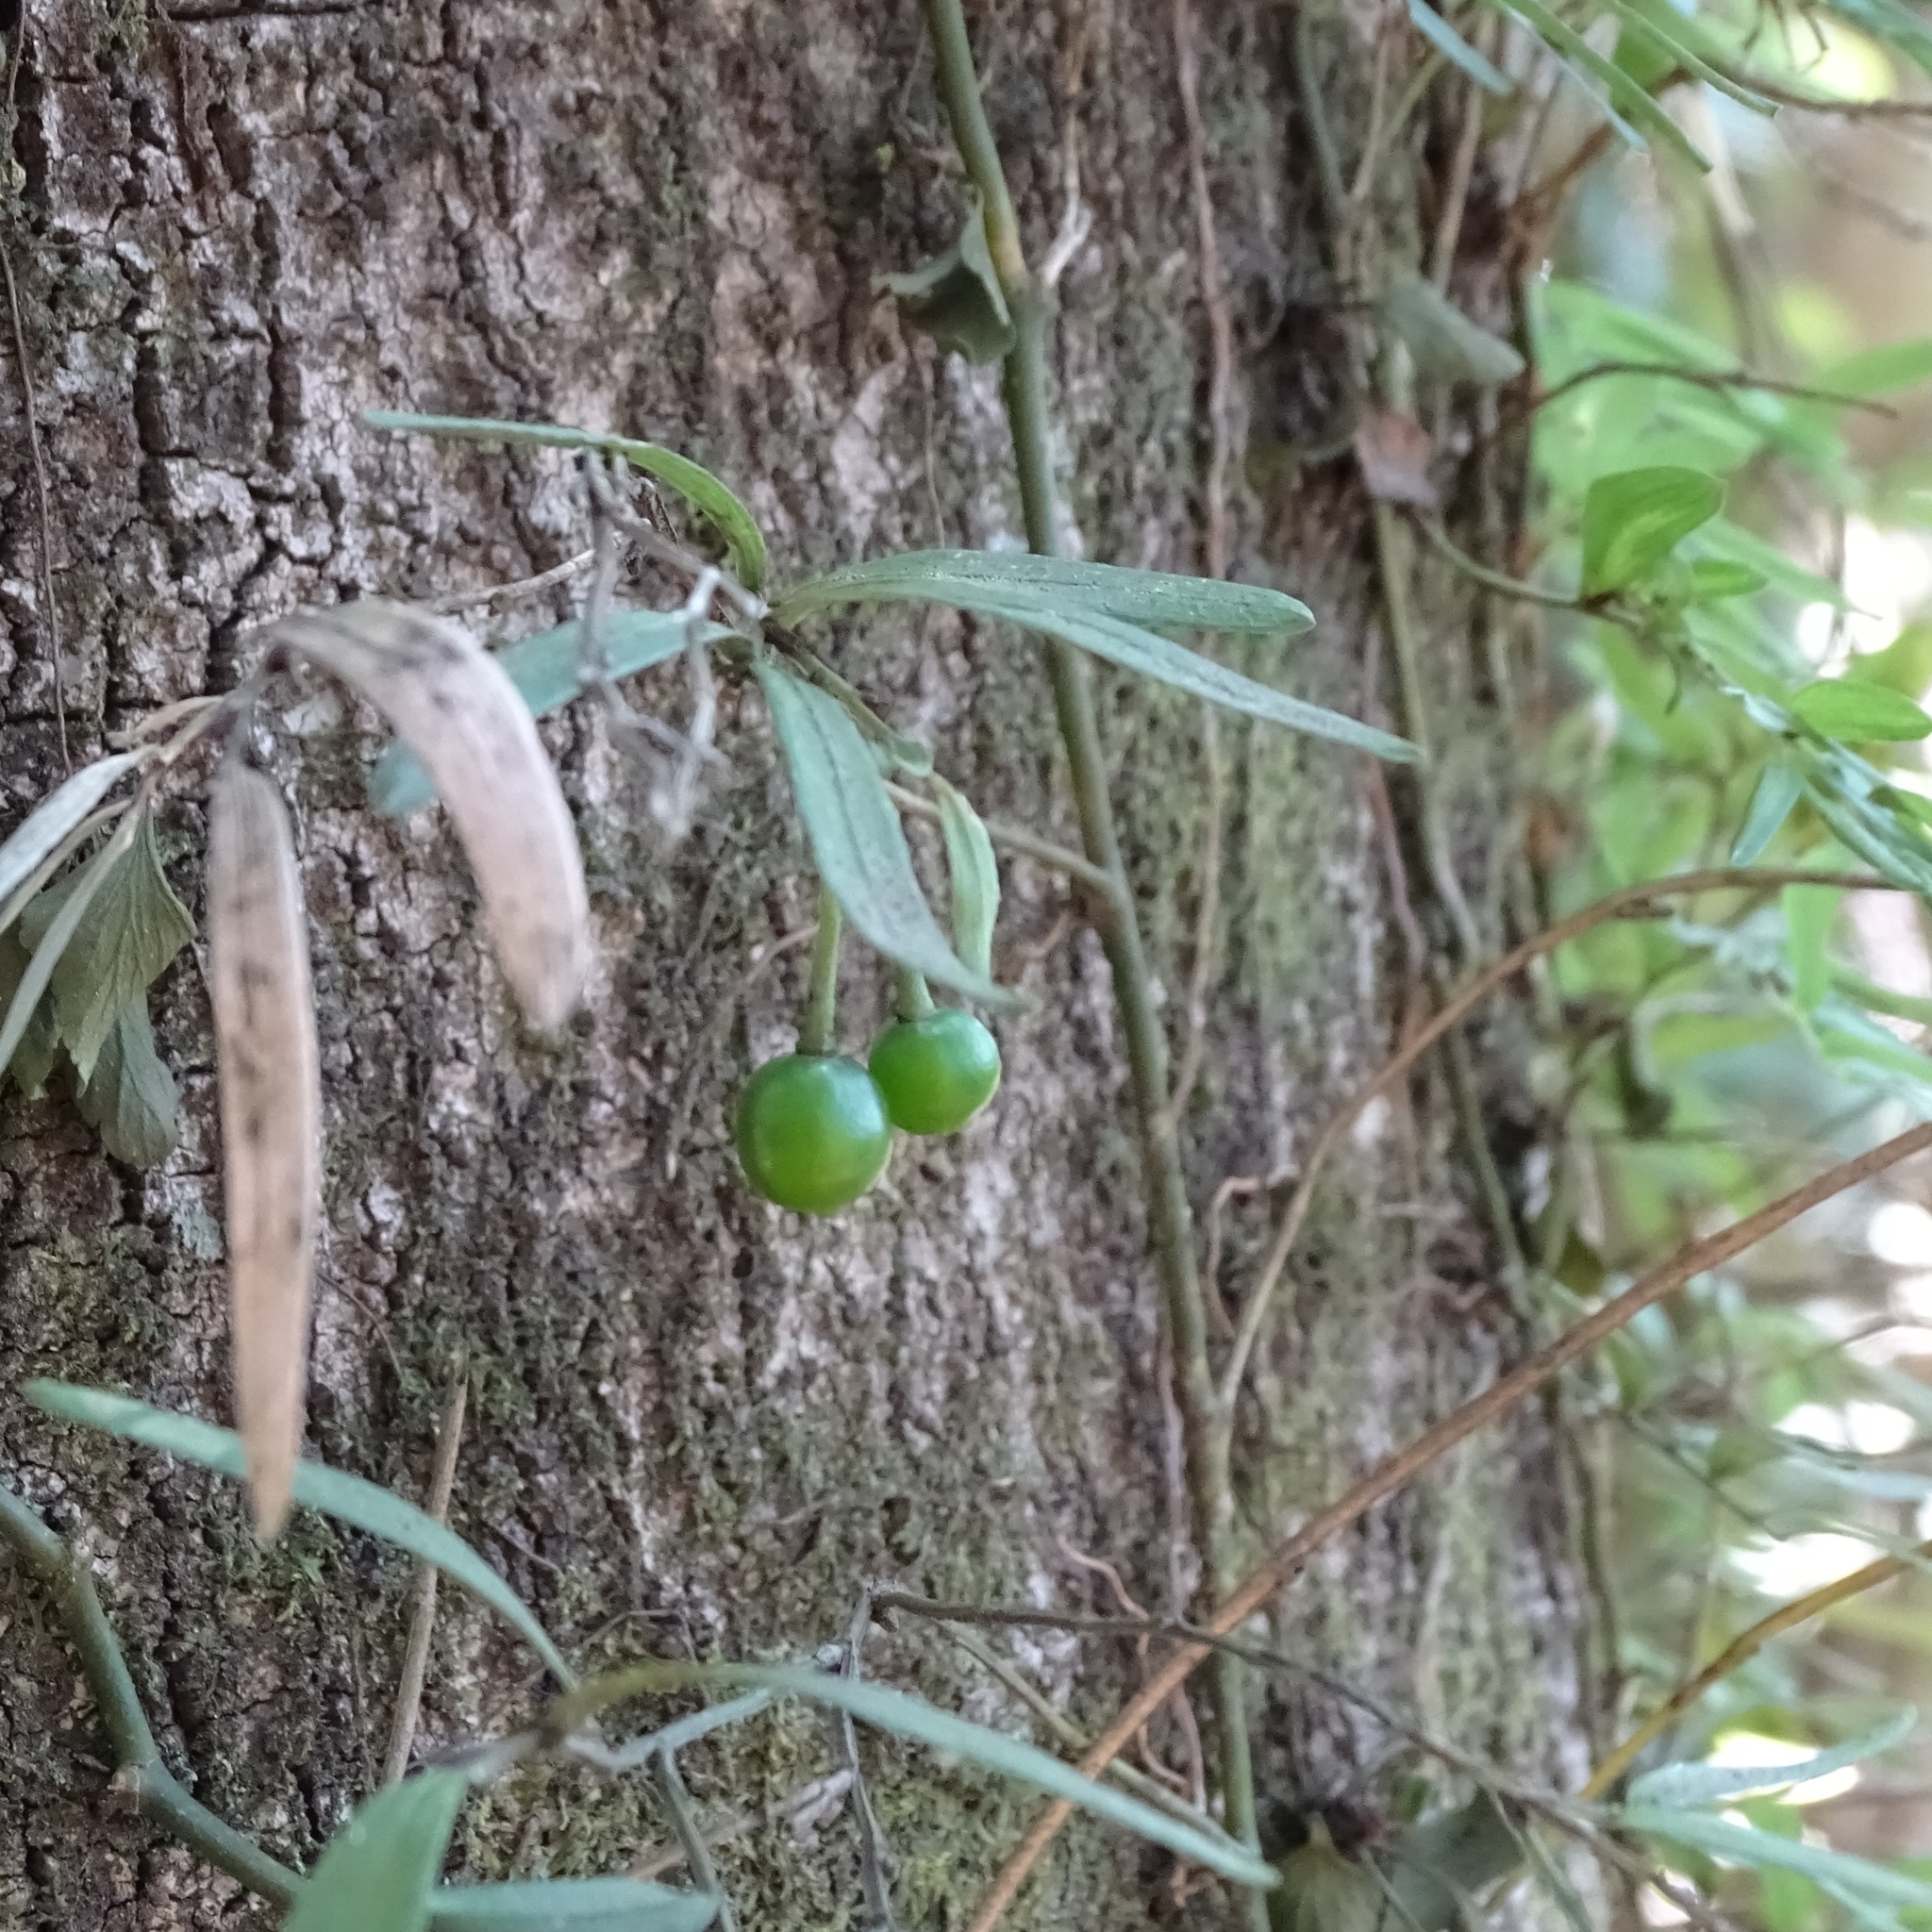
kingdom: Plantae
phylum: Tracheophyta
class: Liliopsida
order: Liliales
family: Alstroemeriaceae
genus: Luzuriaga
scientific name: Luzuriaga radicans
